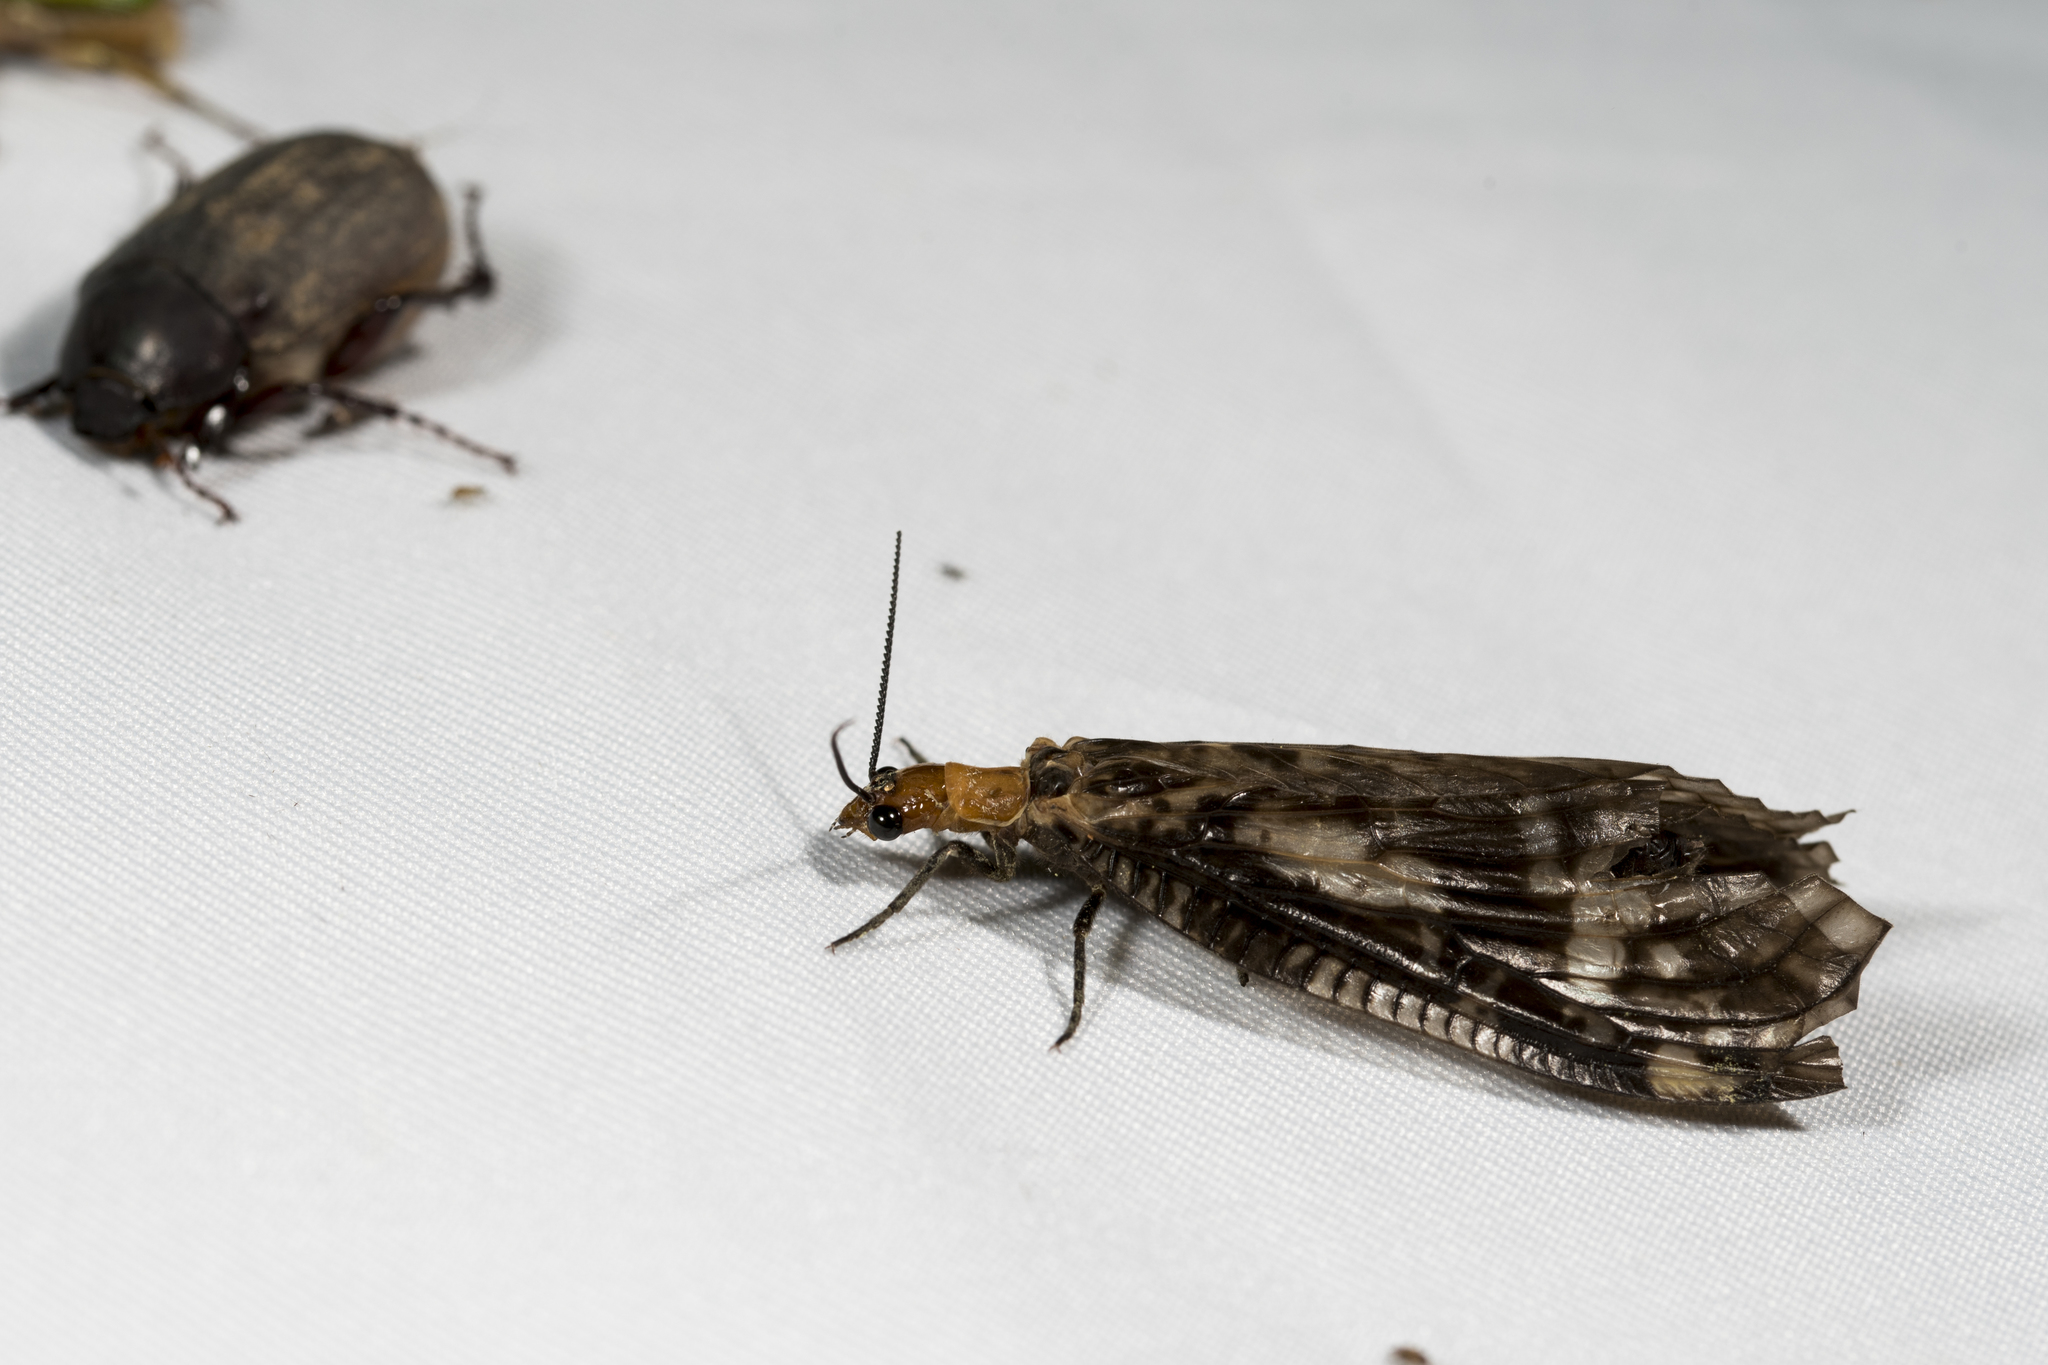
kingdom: Animalia
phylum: Arthropoda
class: Insecta
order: Megaloptera
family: Corydalidae
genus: Neochauliodes
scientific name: Neochauliodes formosanus
